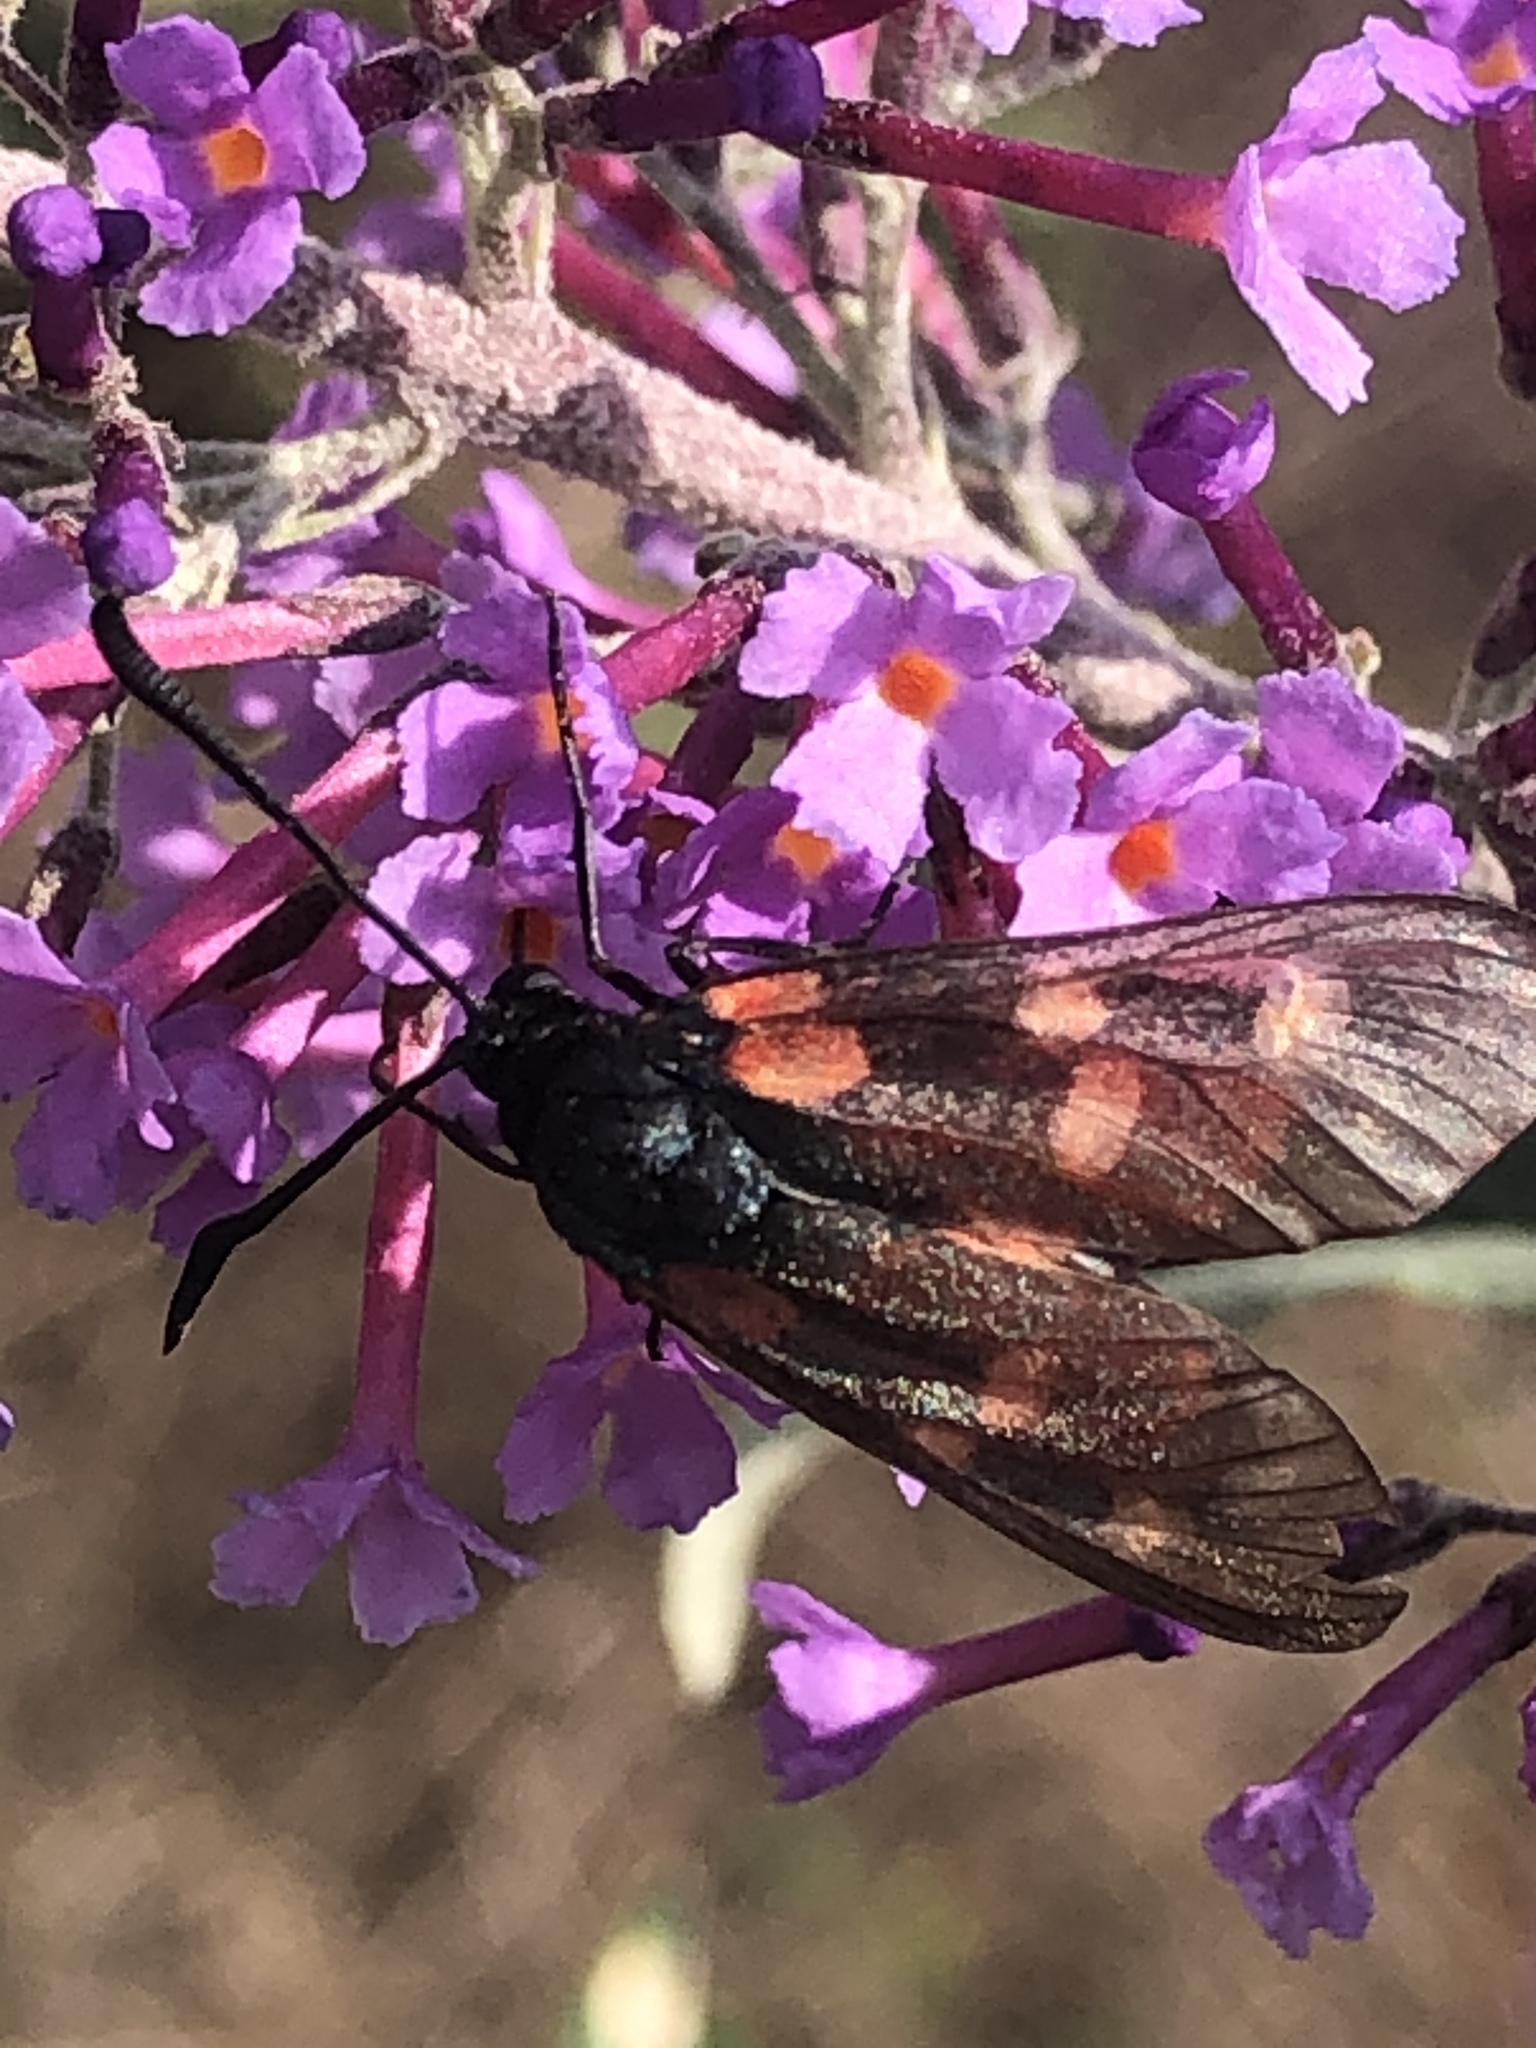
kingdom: Animalia
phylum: Arthropoda
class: Insecta
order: Lepidoptera
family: Zygaenidae
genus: Zygaena
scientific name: Zygaena lonicerae
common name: Narrow-bordered five-spot burnet
